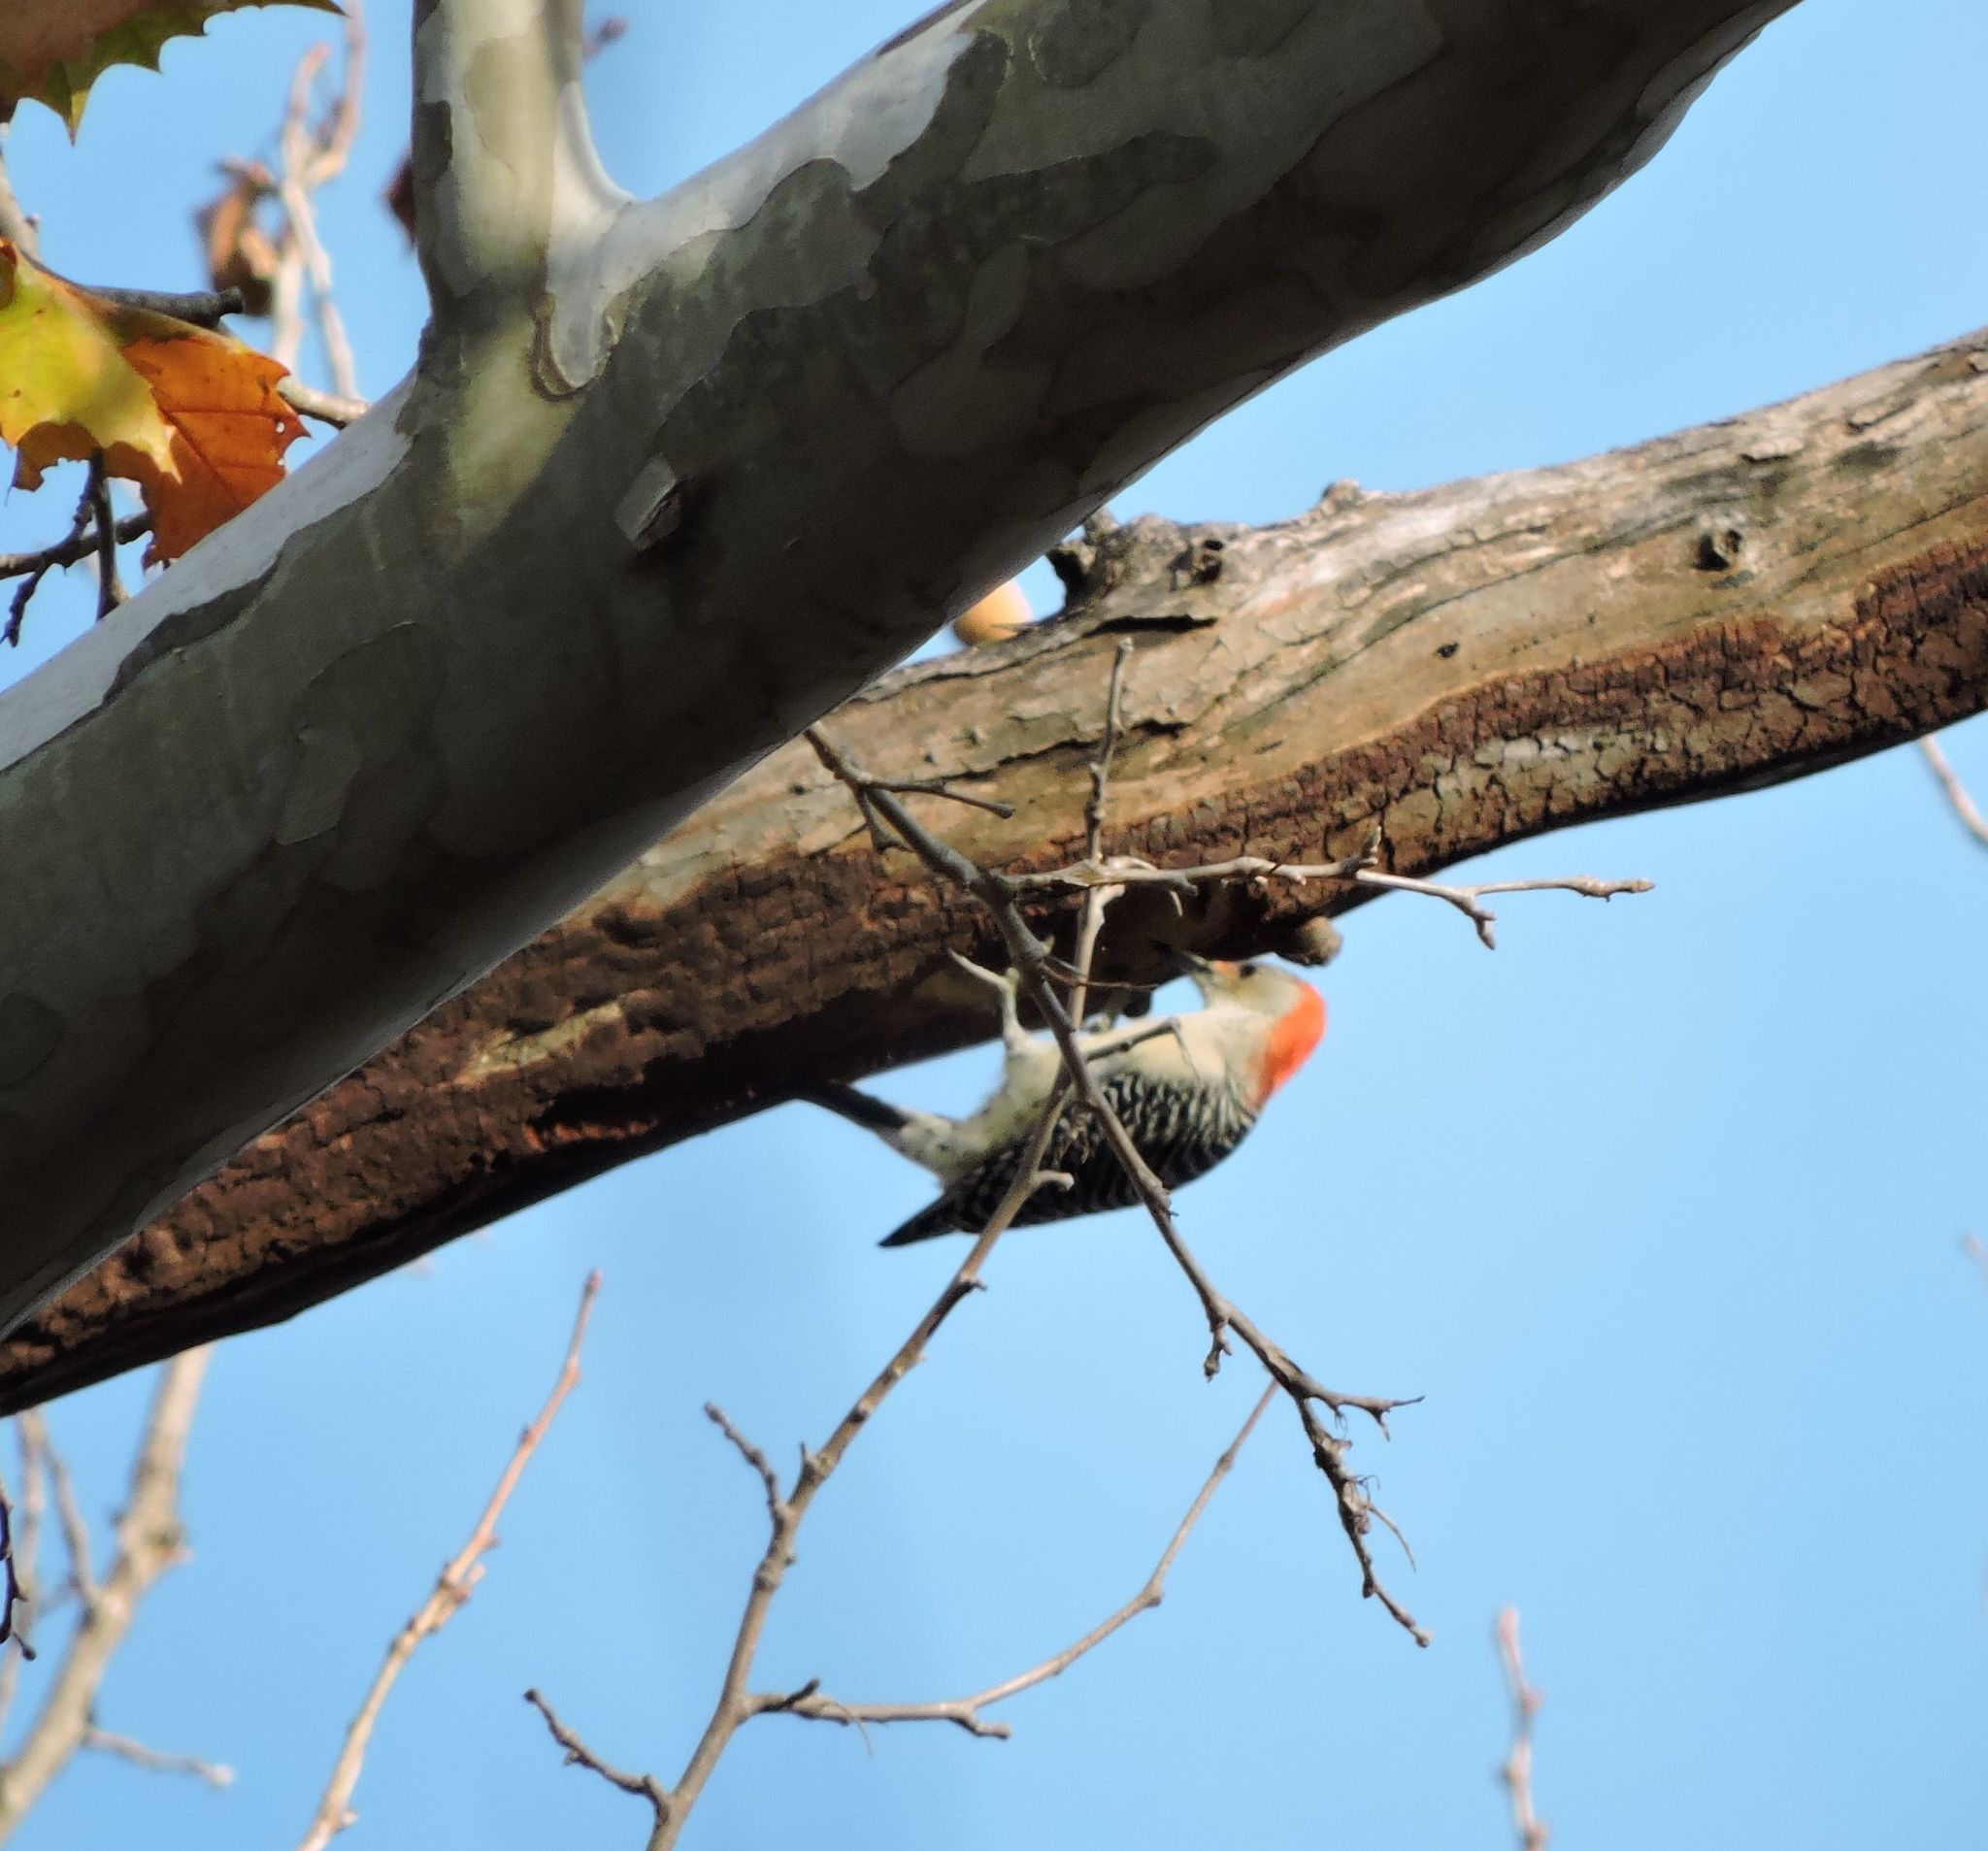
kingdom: Animalia
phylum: Chordata
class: Aves
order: Piciformes
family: Picidae
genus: Melanerpes
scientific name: Melanerpes carolinus
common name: Red-bellied woodpecker
